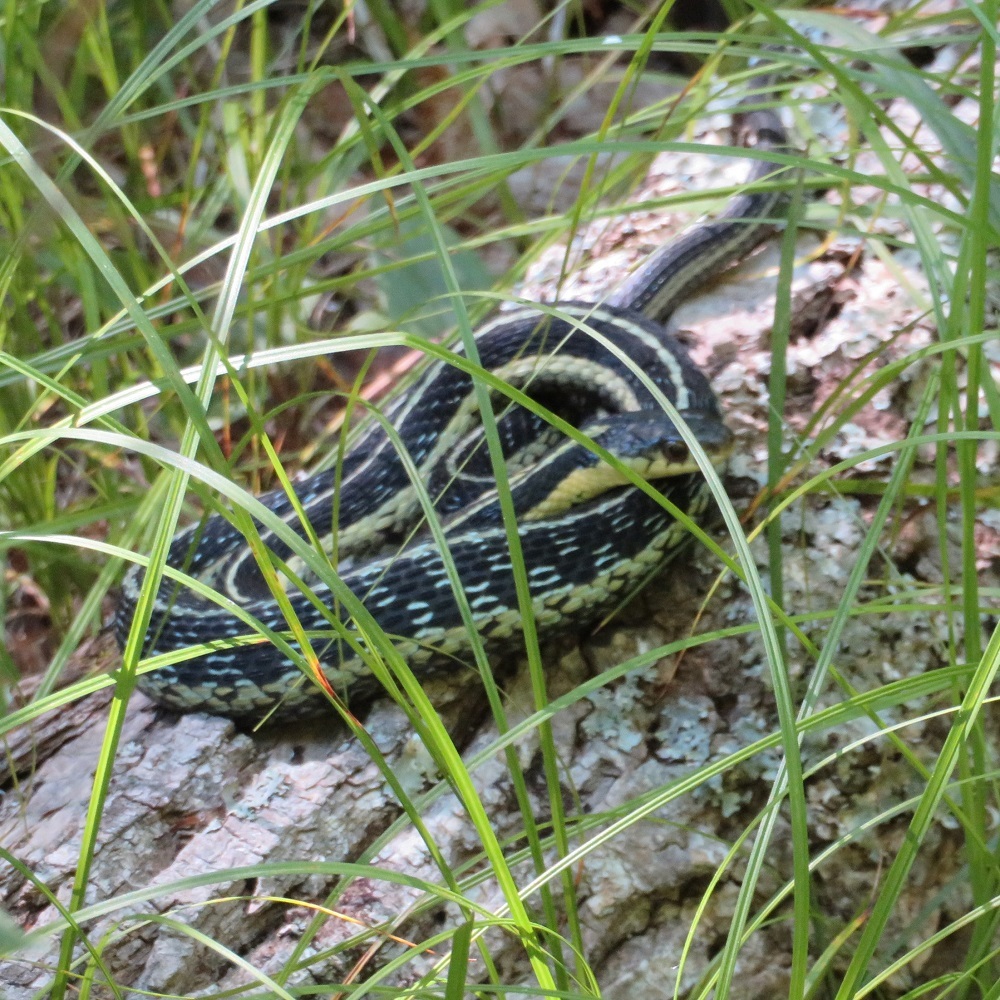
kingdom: Animalia
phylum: Chordata
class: Squamata
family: Colubridae
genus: Thamnophis
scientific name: Thamnophis sirtalis
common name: Common garter snake
